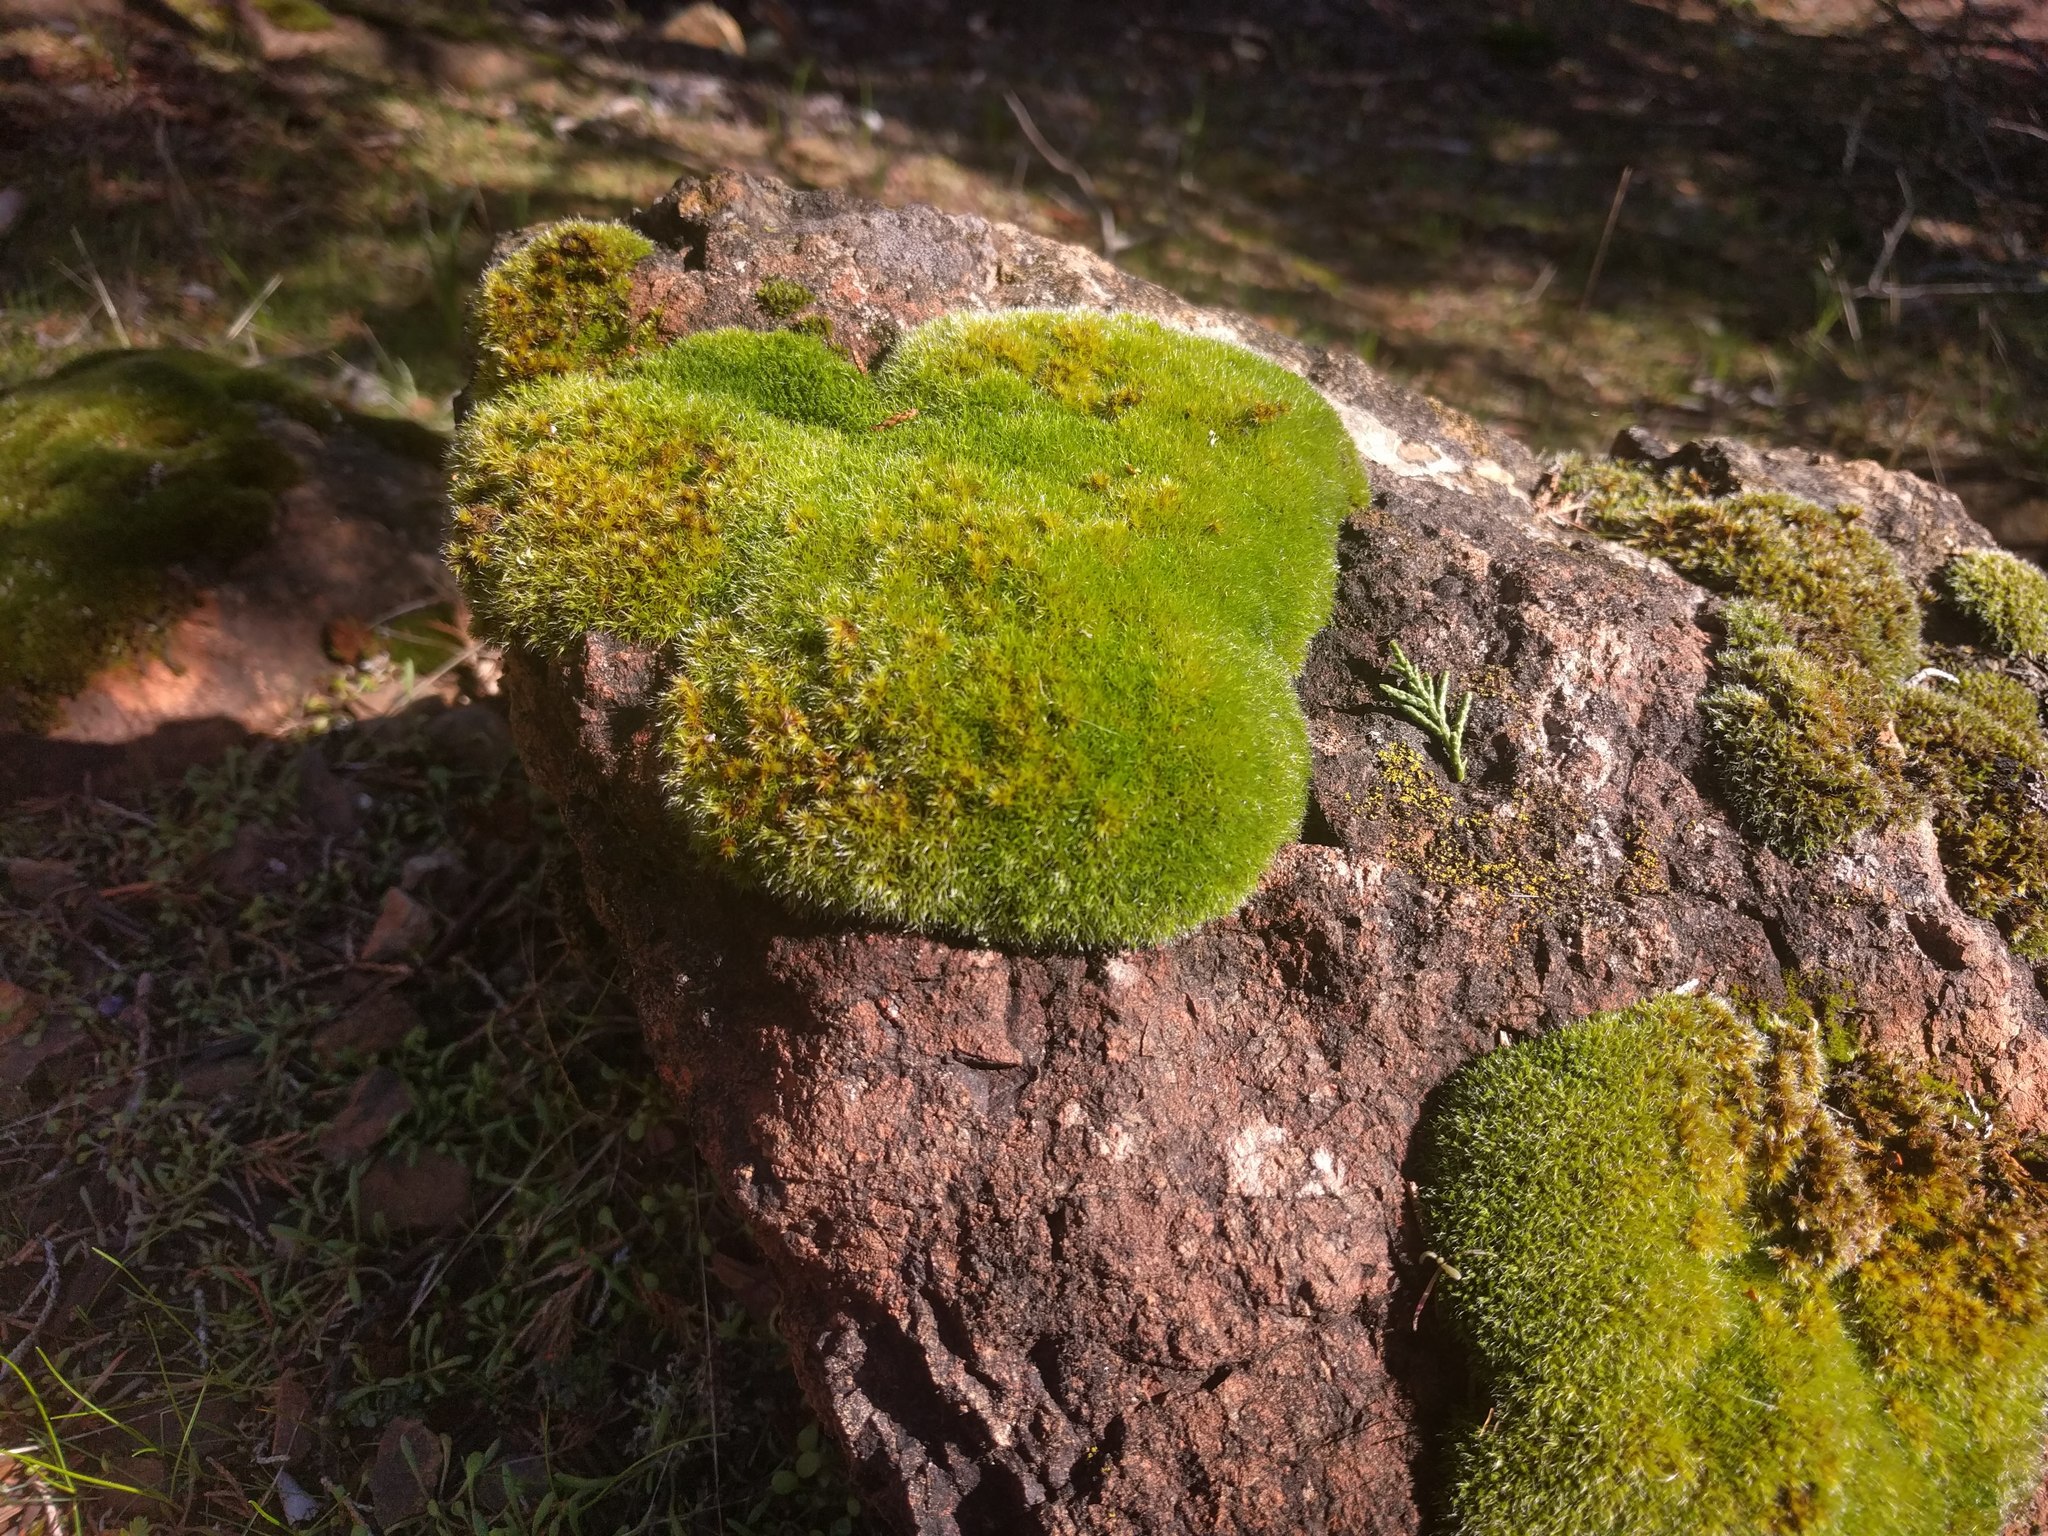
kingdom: Plantae
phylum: Bryophyta
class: Bryopsida
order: Dicranales
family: Dicranaceae
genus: Dicranum
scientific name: Dicranum scoparium
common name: Broom fork-moss
